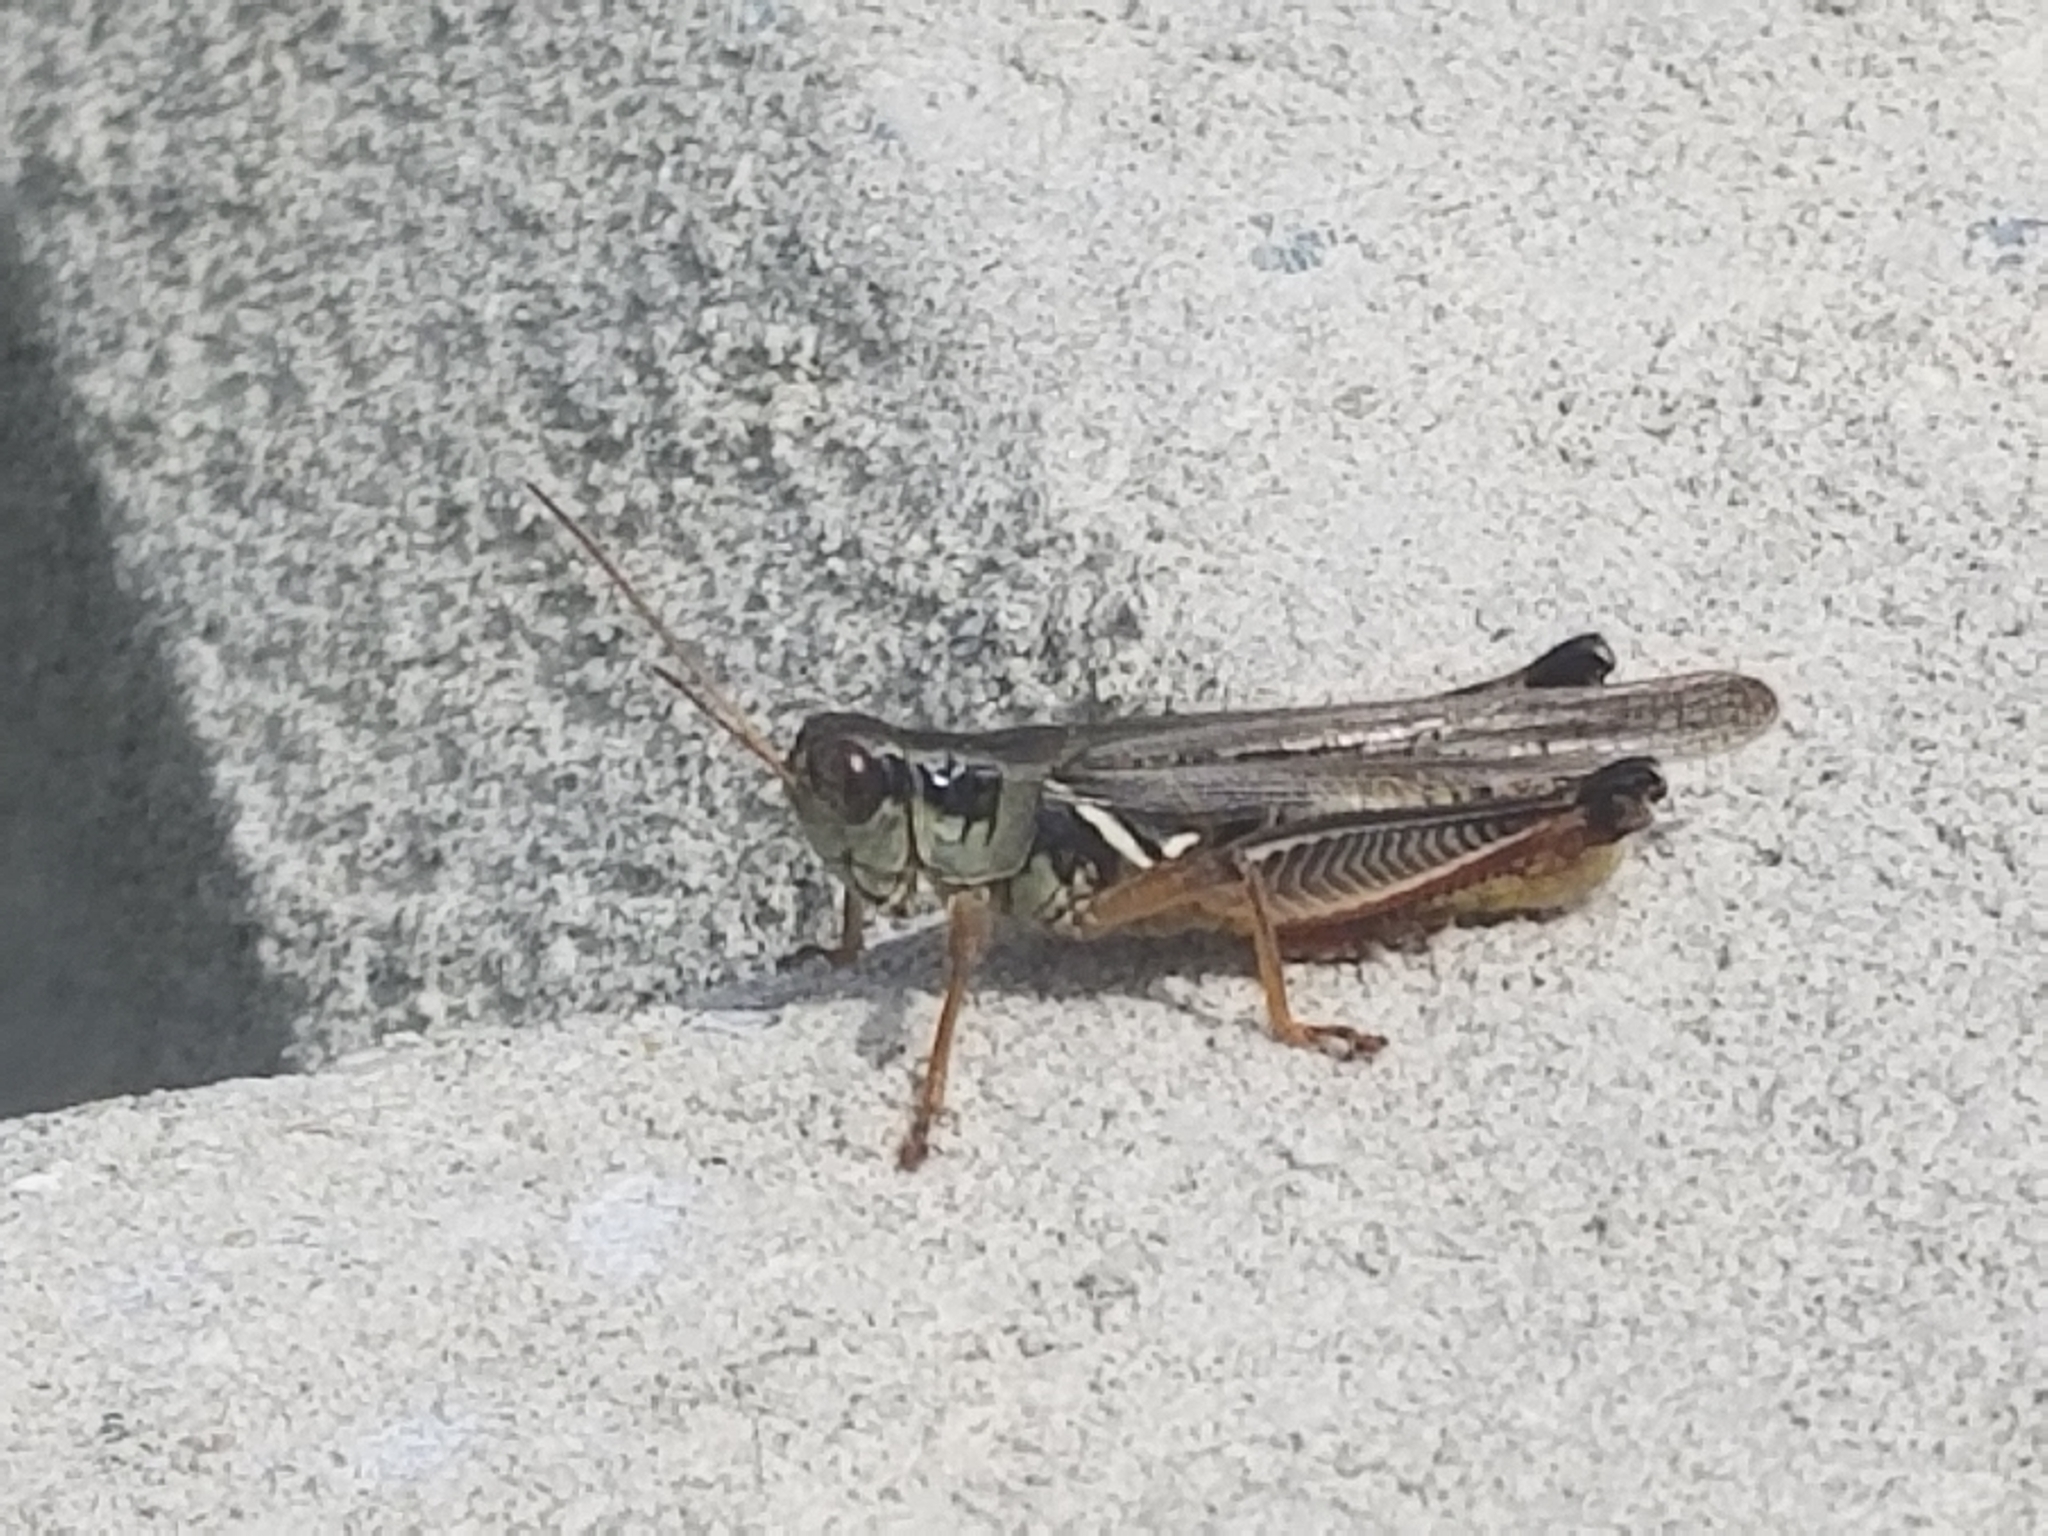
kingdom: Animalia
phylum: Arthropoda
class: Insecta
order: Orthoptera
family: Acrididae
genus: Melanoplus
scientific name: Melanoplus femurrubrum
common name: Red-legged grasshopper
